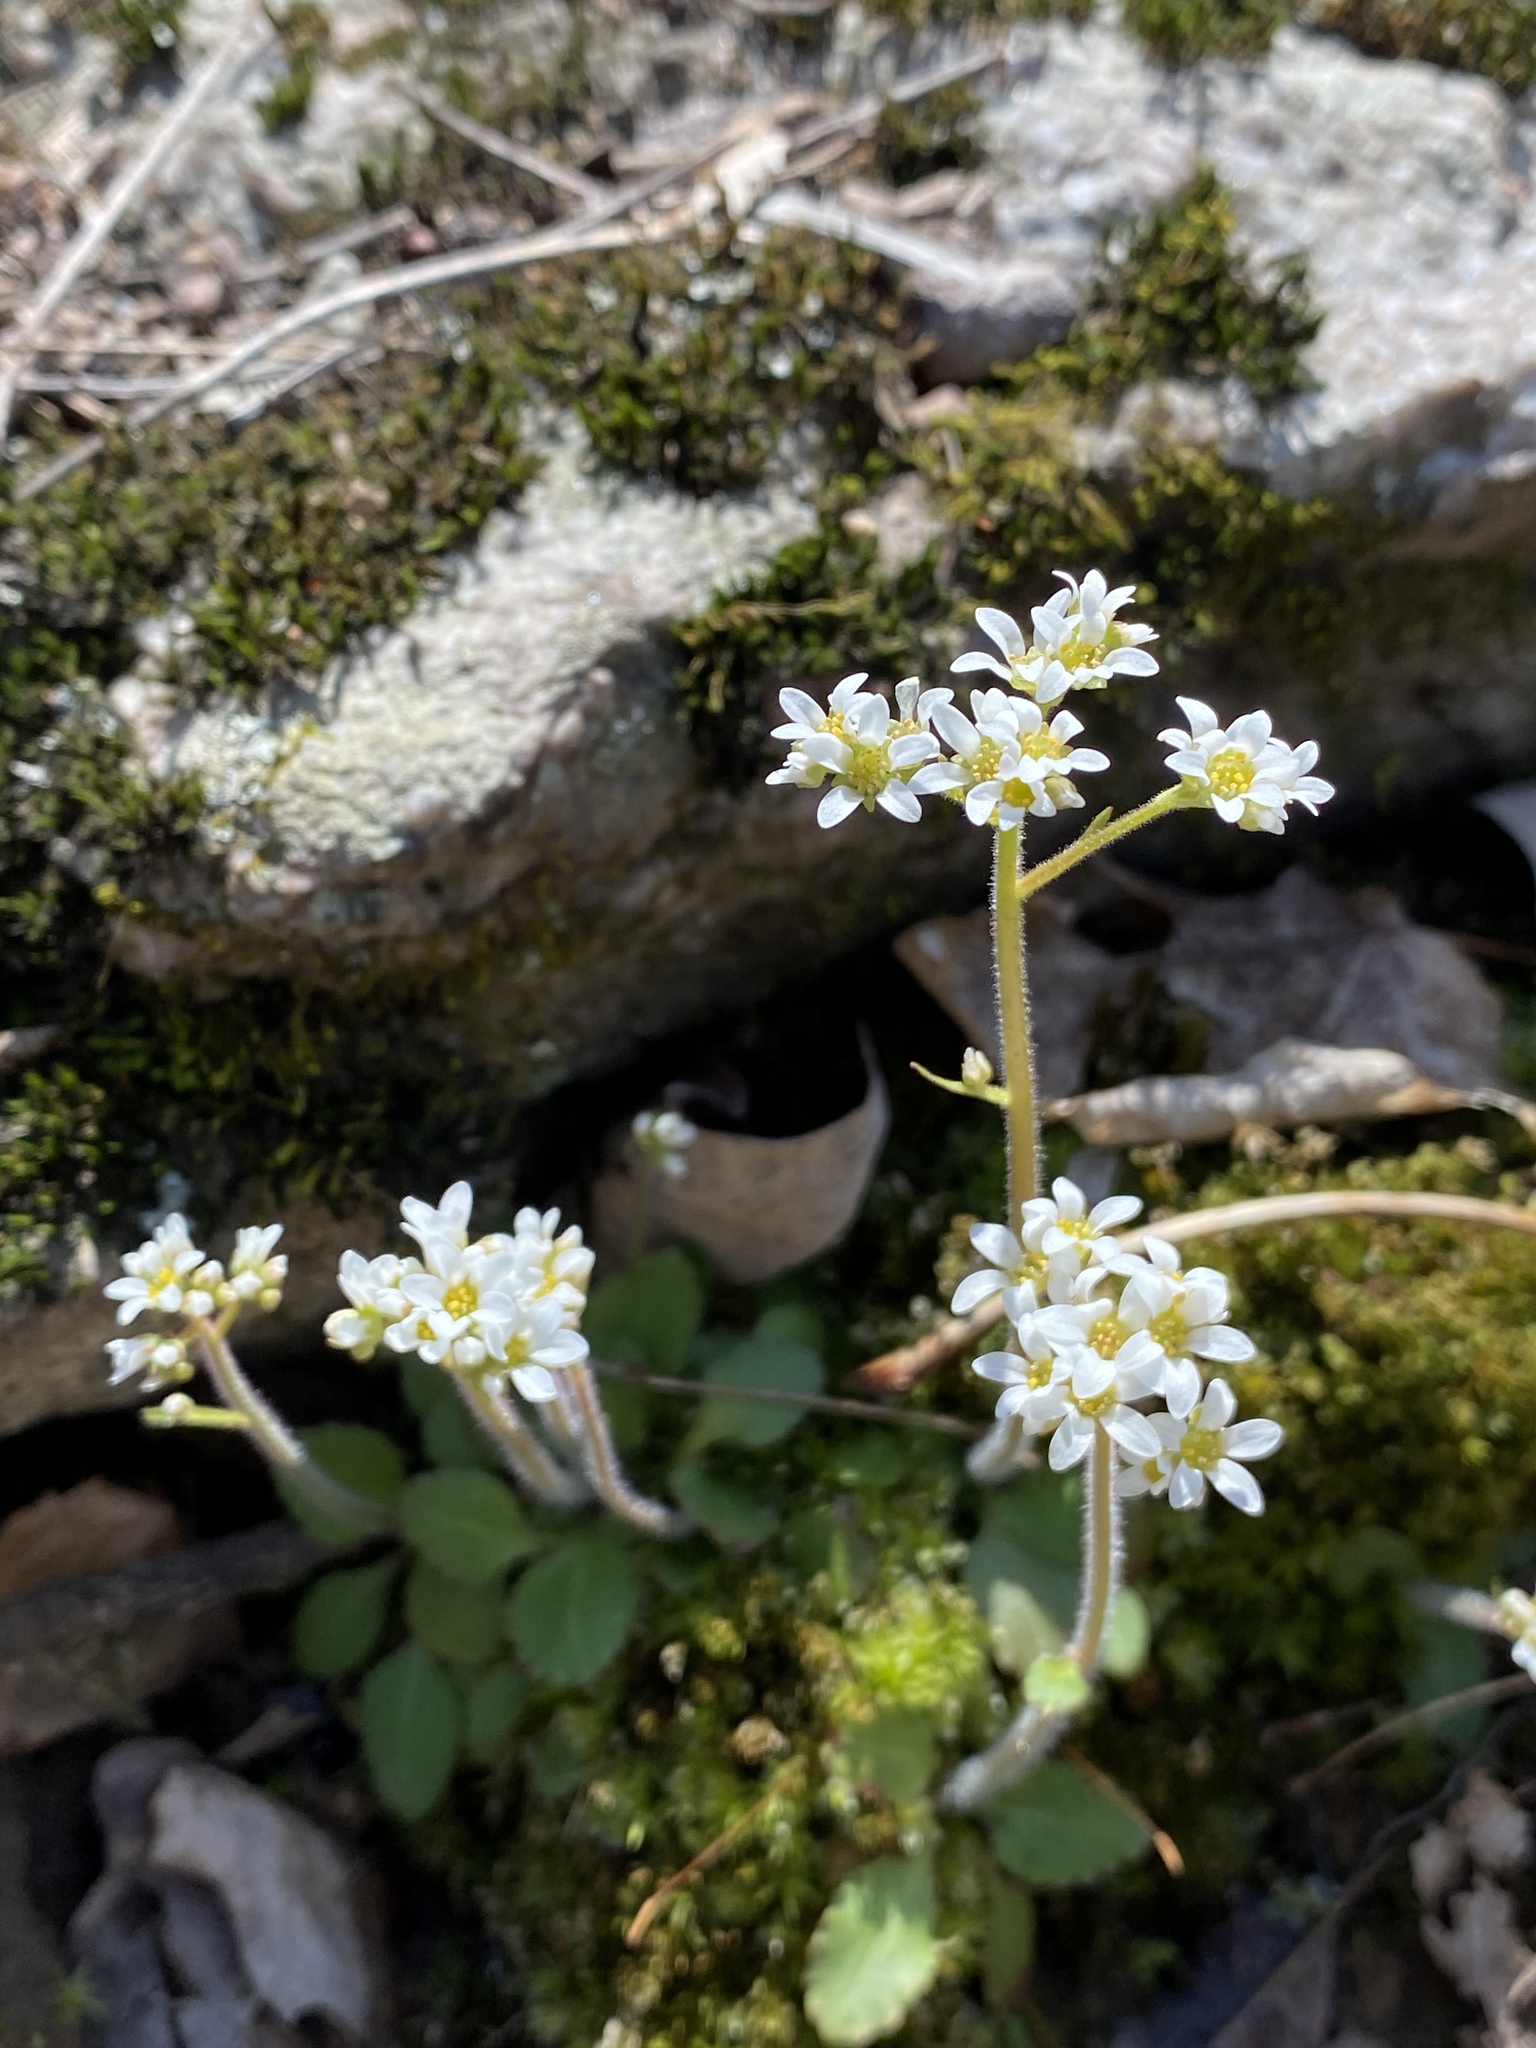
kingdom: Plantae
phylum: Tracheophyta
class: Magnoliopsida
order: Saxifragales
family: Saxifragaceae
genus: Micranthes
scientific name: Micranthes virginiensis
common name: Early saxifrage
